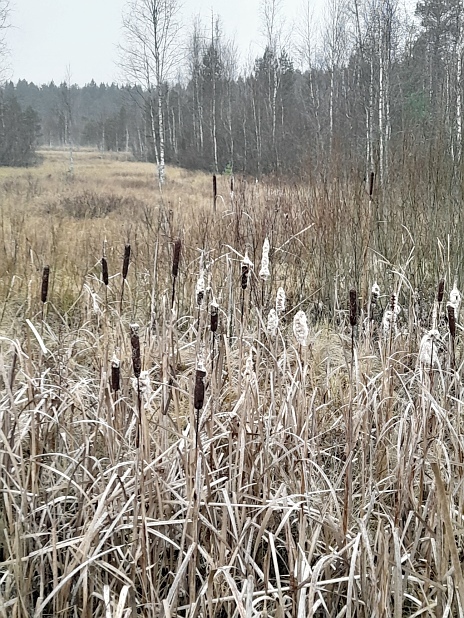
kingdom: Plantae
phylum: Tracheophyta
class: Liliopsida
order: Poales
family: Typhaceae
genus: Typha
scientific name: Typha latifolia
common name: Broadleaf cattail
